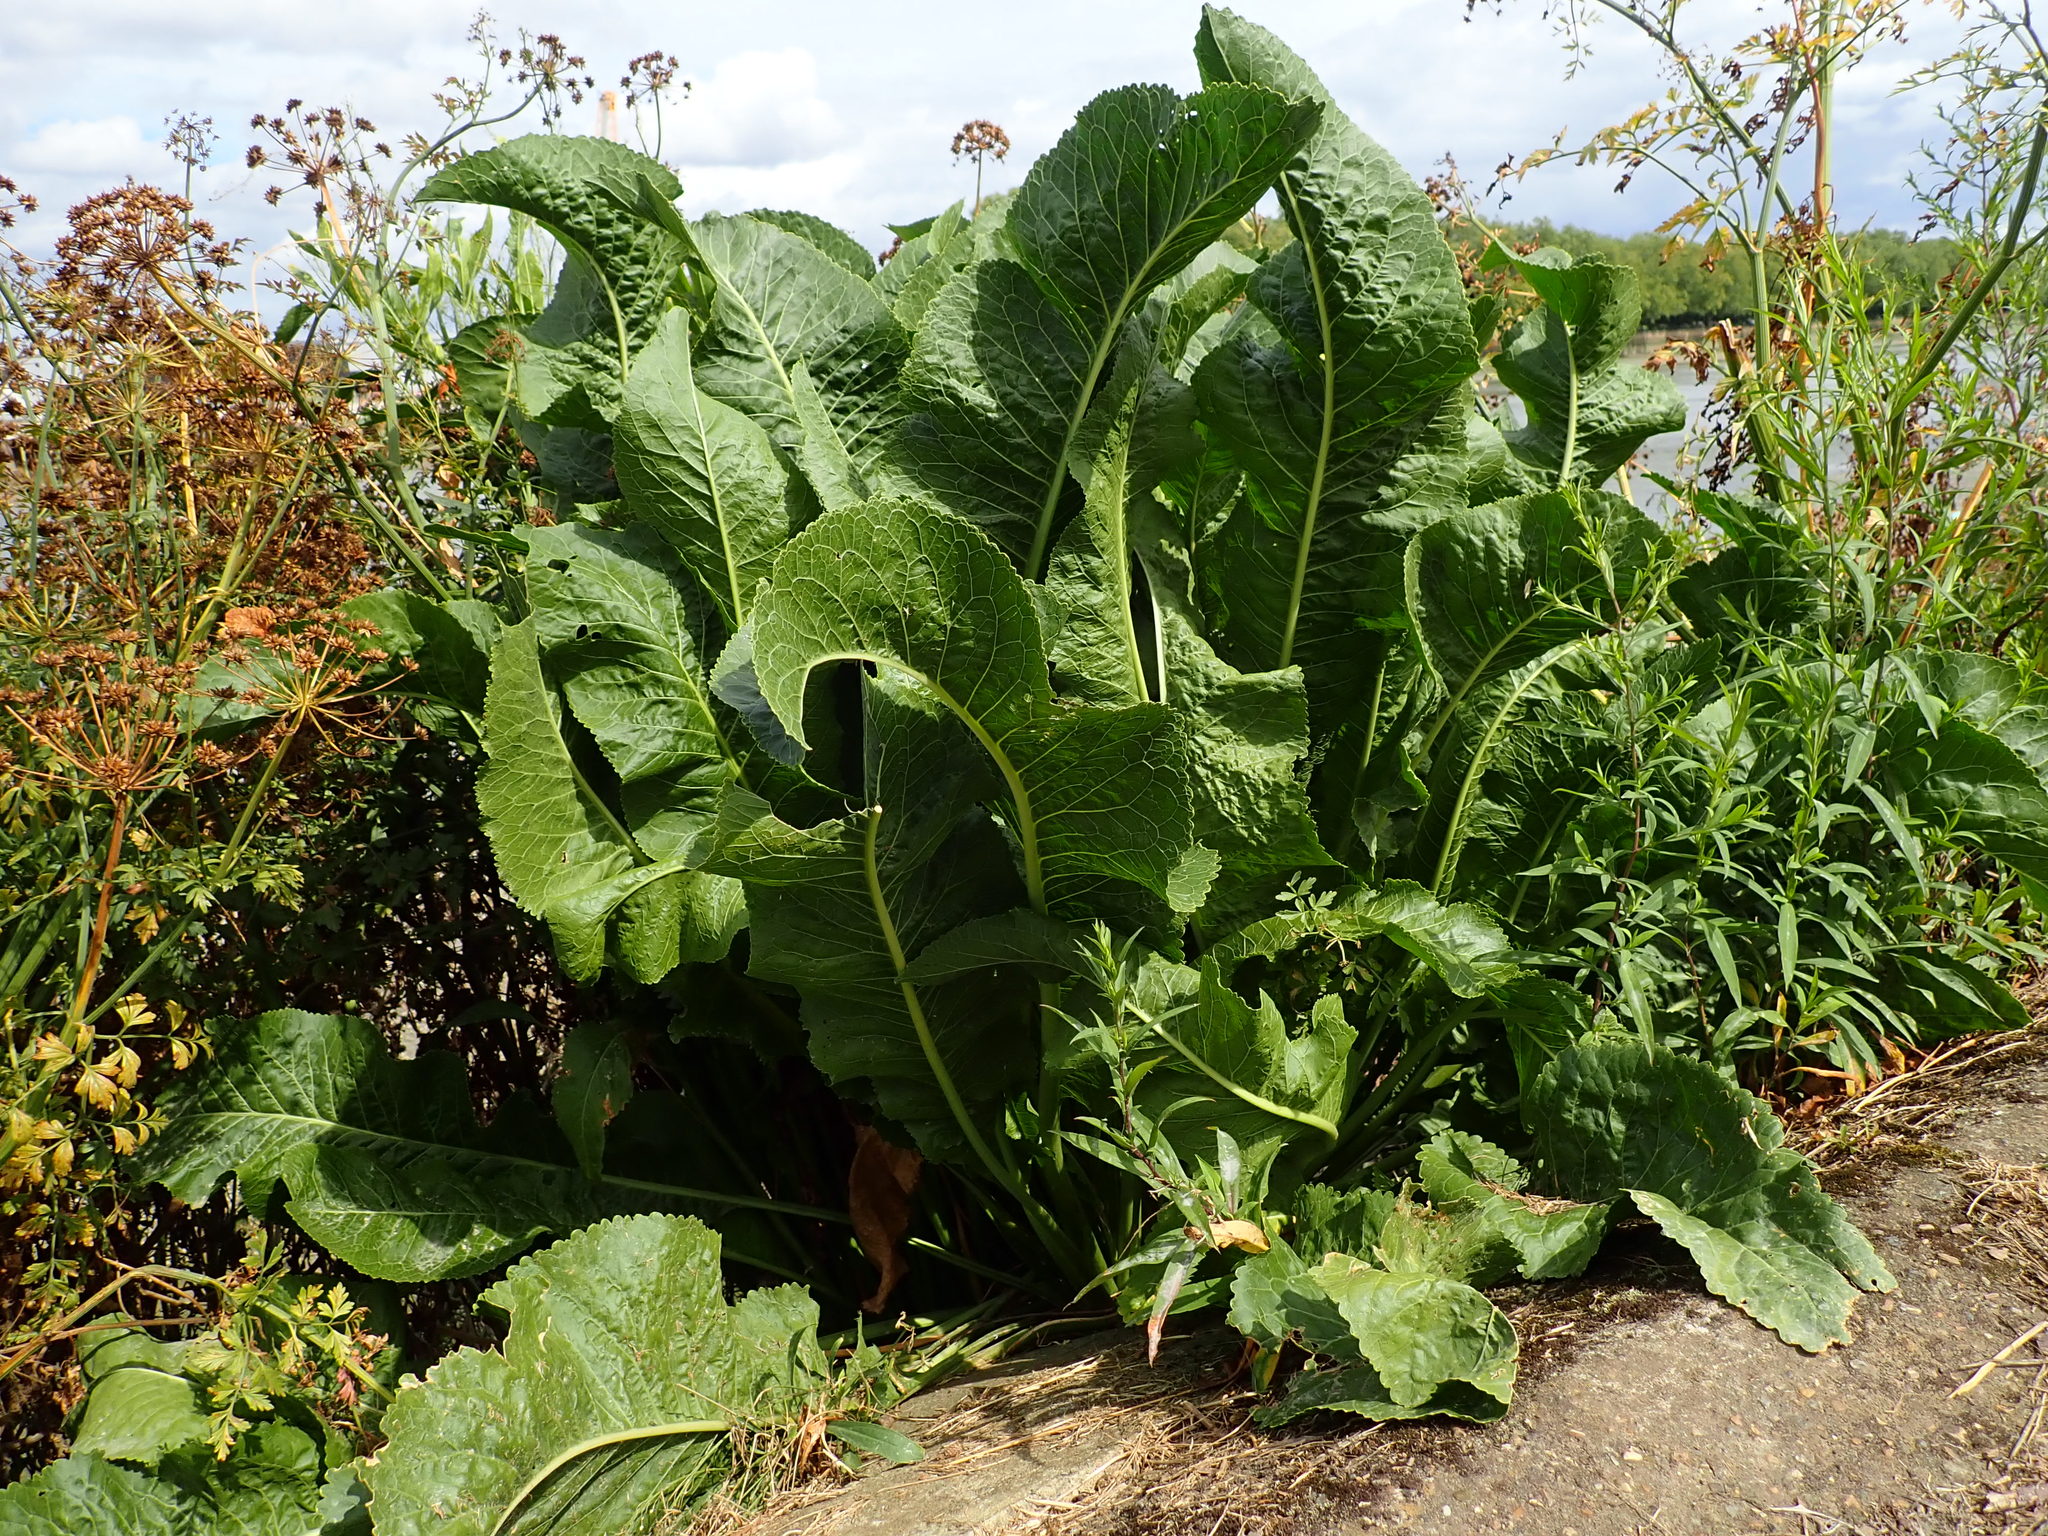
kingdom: Plantae
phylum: Tracheophyta
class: Magnoliopsida
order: Brassicales
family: Brassicaceae
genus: Armoracia
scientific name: Armoracia rusticana
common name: Horseradish
